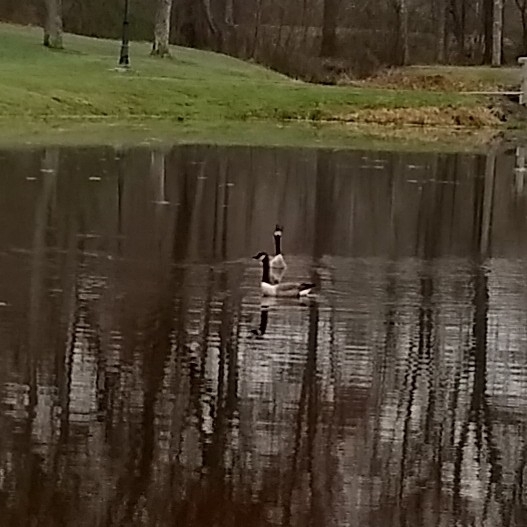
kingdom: Animalia
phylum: Chordata
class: Aves
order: Anseriformes
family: Anatidae
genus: Branta
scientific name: Branta canadensis
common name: Canada goose
